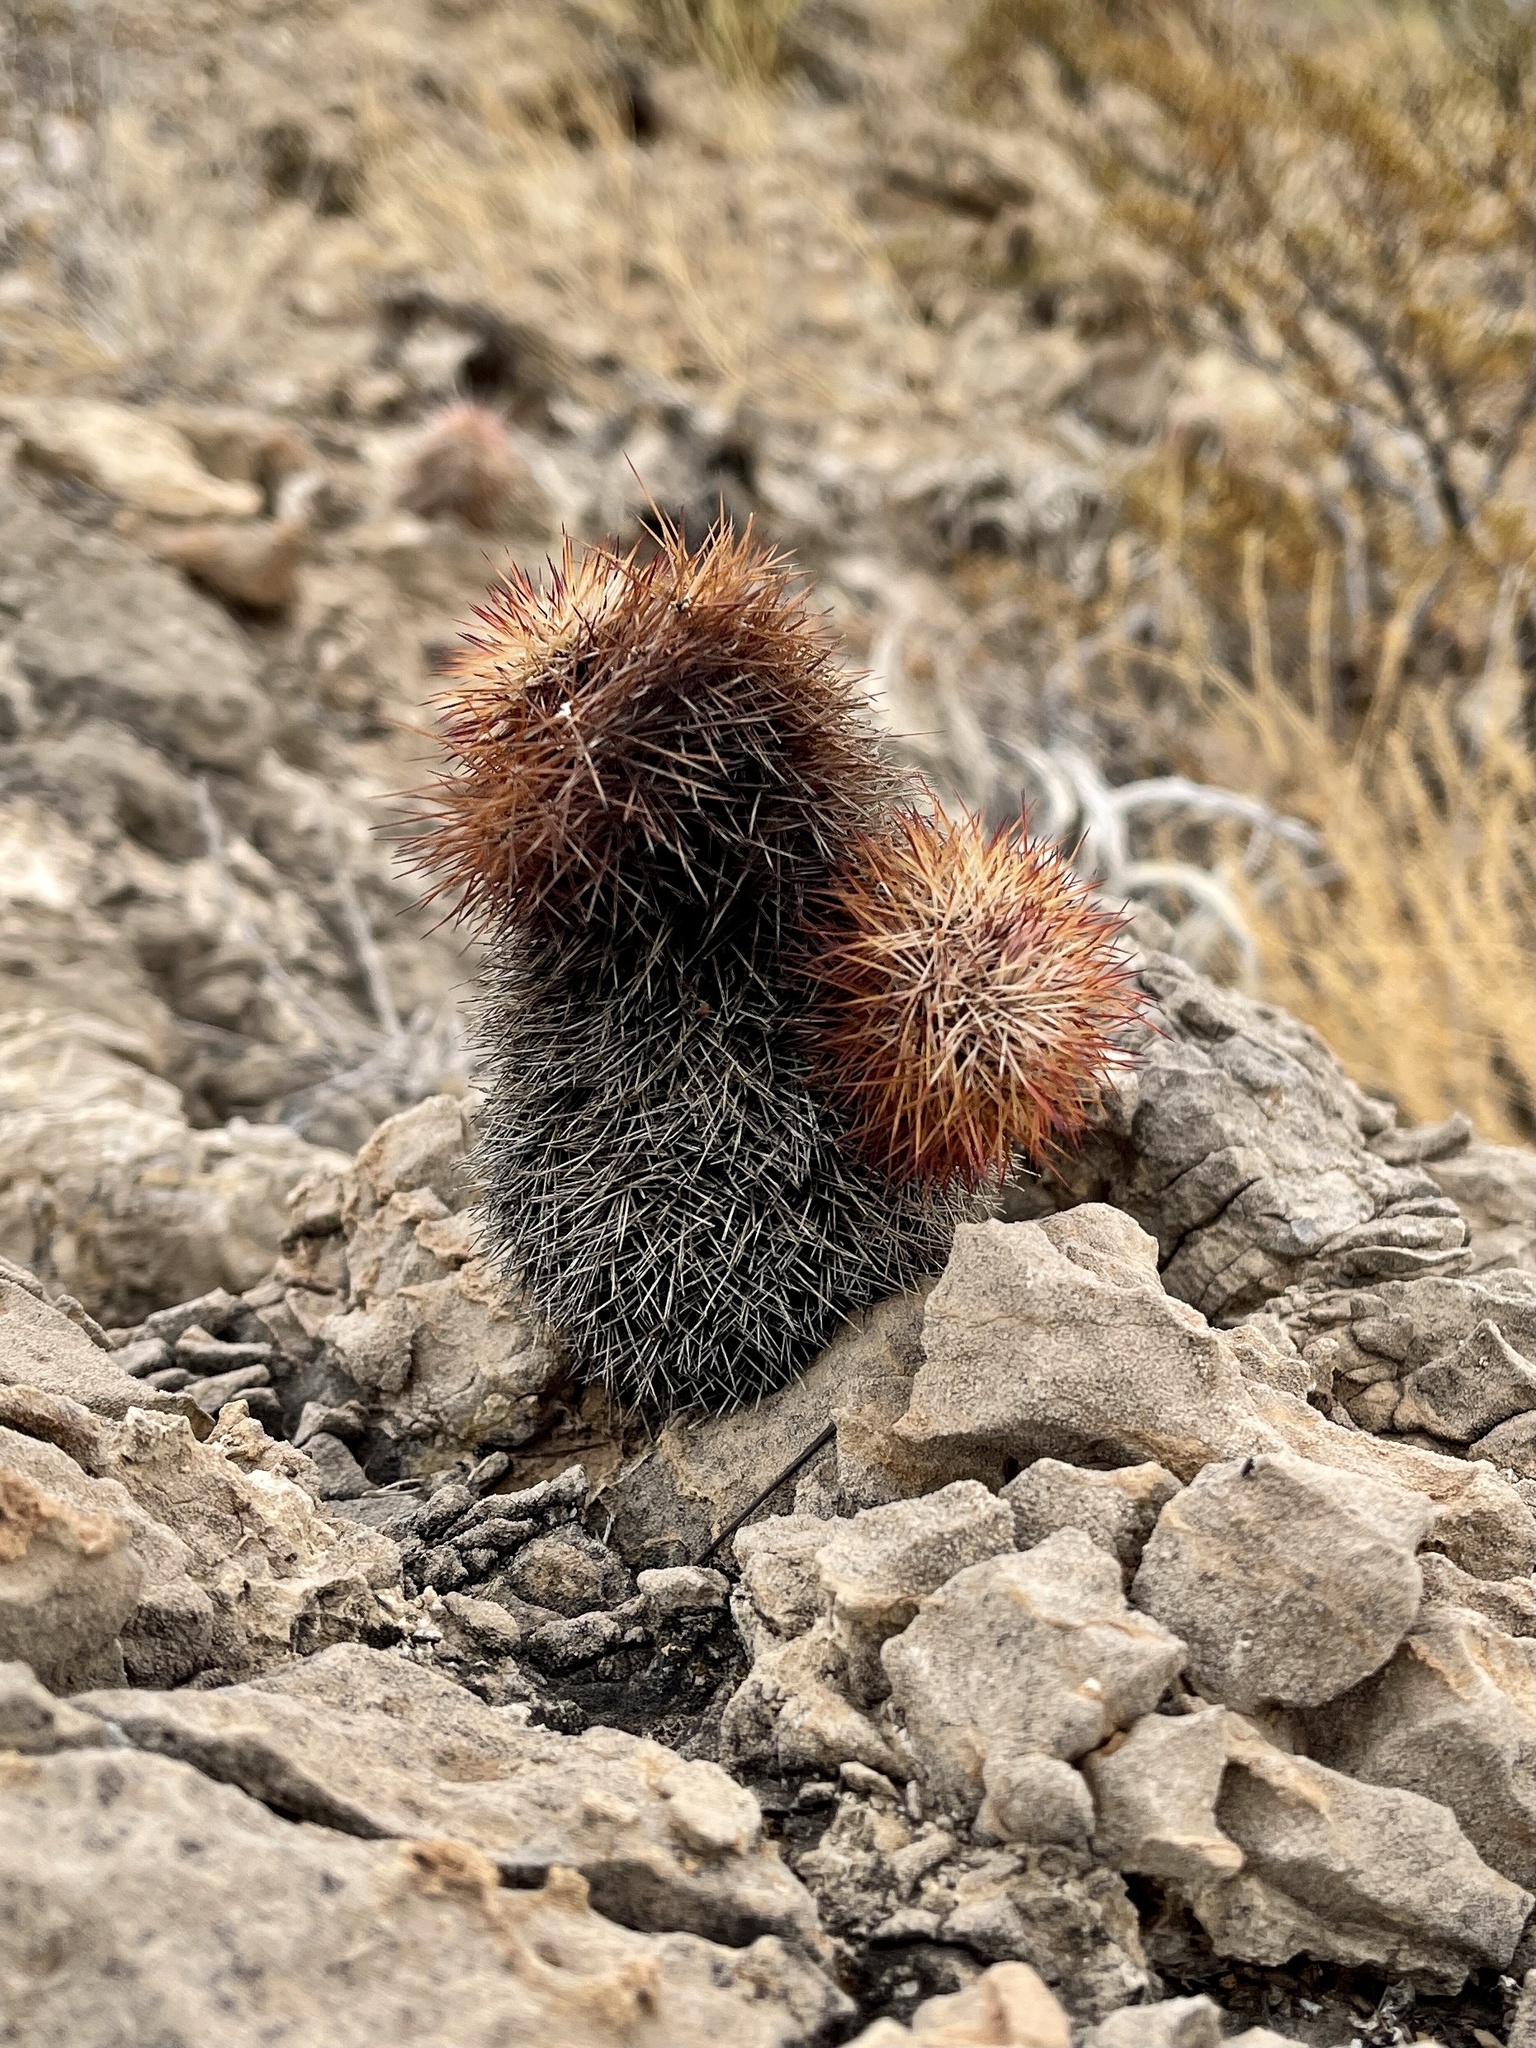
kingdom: Plantae
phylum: Tracheophyta
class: Magnoliopsida
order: Caryophyllales
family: Cactaceae
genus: Echinocereus
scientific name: Echinocereus dasyacanthus
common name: Spiny hedgehog cactus
